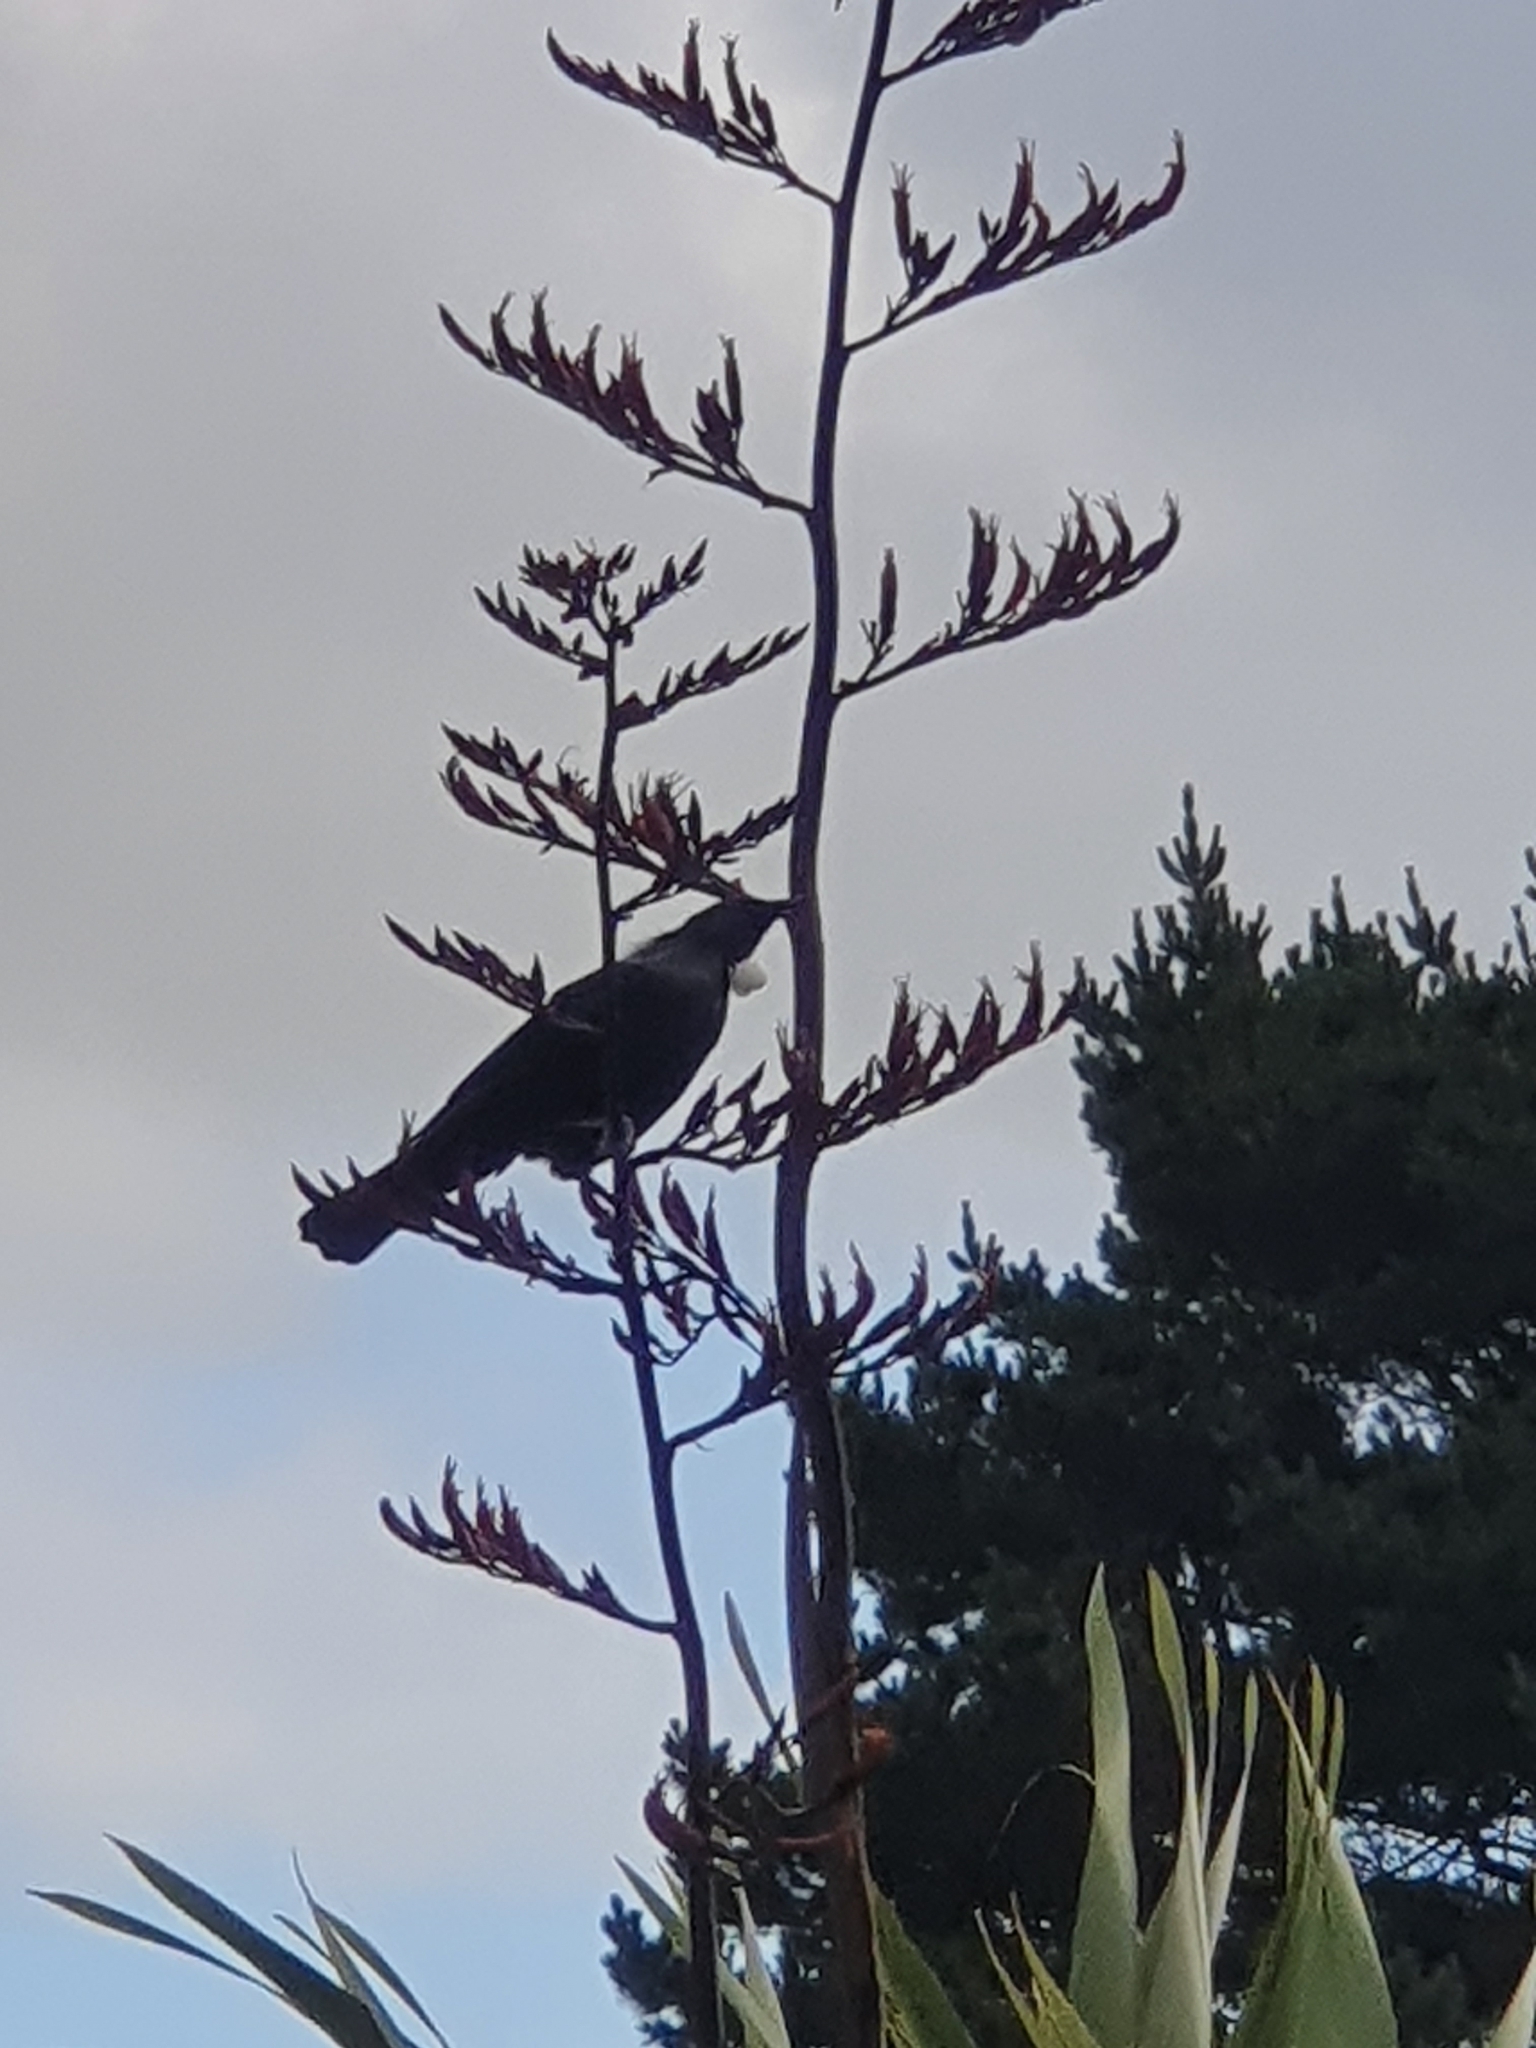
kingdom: Animalia
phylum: Chordata
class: Aves
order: Passeriformes
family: Meliphagidae
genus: Prosthemadera
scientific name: Prosthemadera novaeseelandiae
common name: Tui
